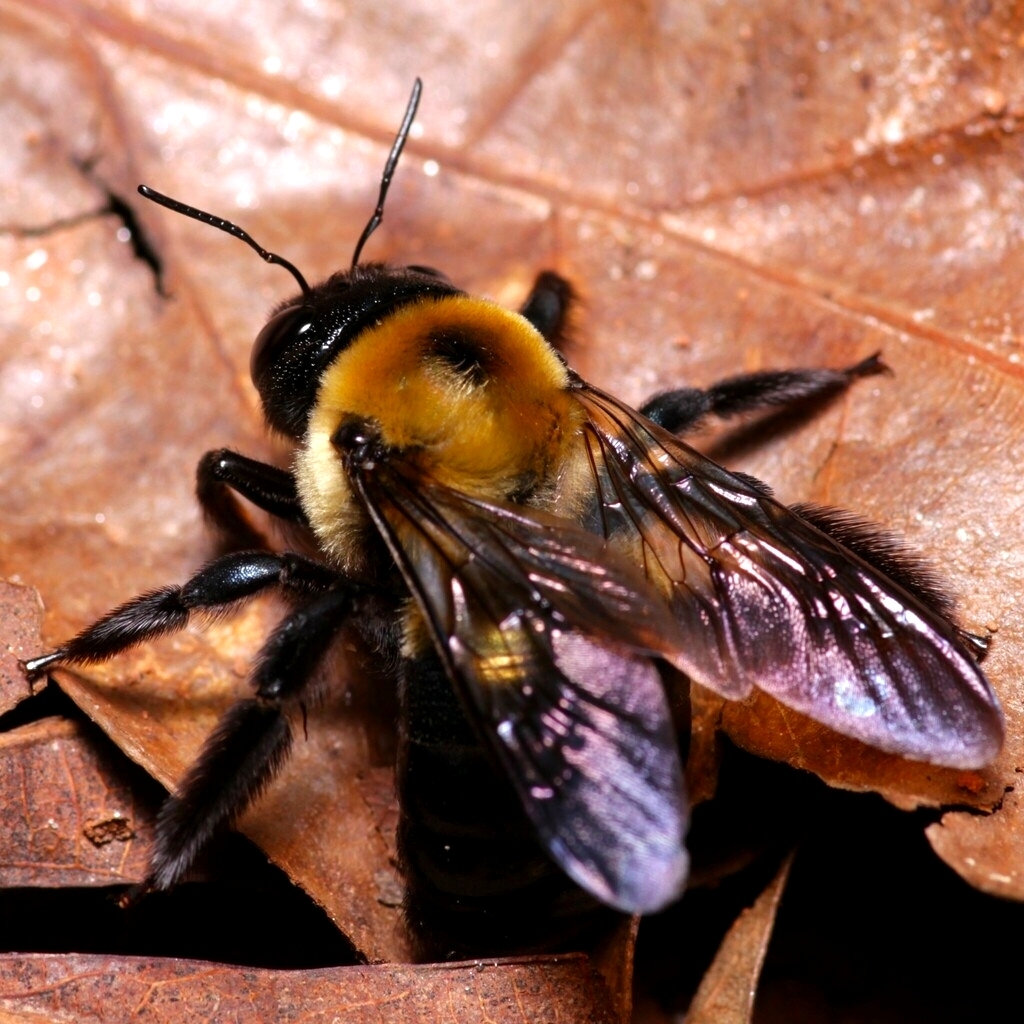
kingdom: Animalia
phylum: Arthropoda
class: Insecta
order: Hymenoptera
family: Apidae
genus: Xylocopa
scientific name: Xylocopa virginica
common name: Carpenter bee
